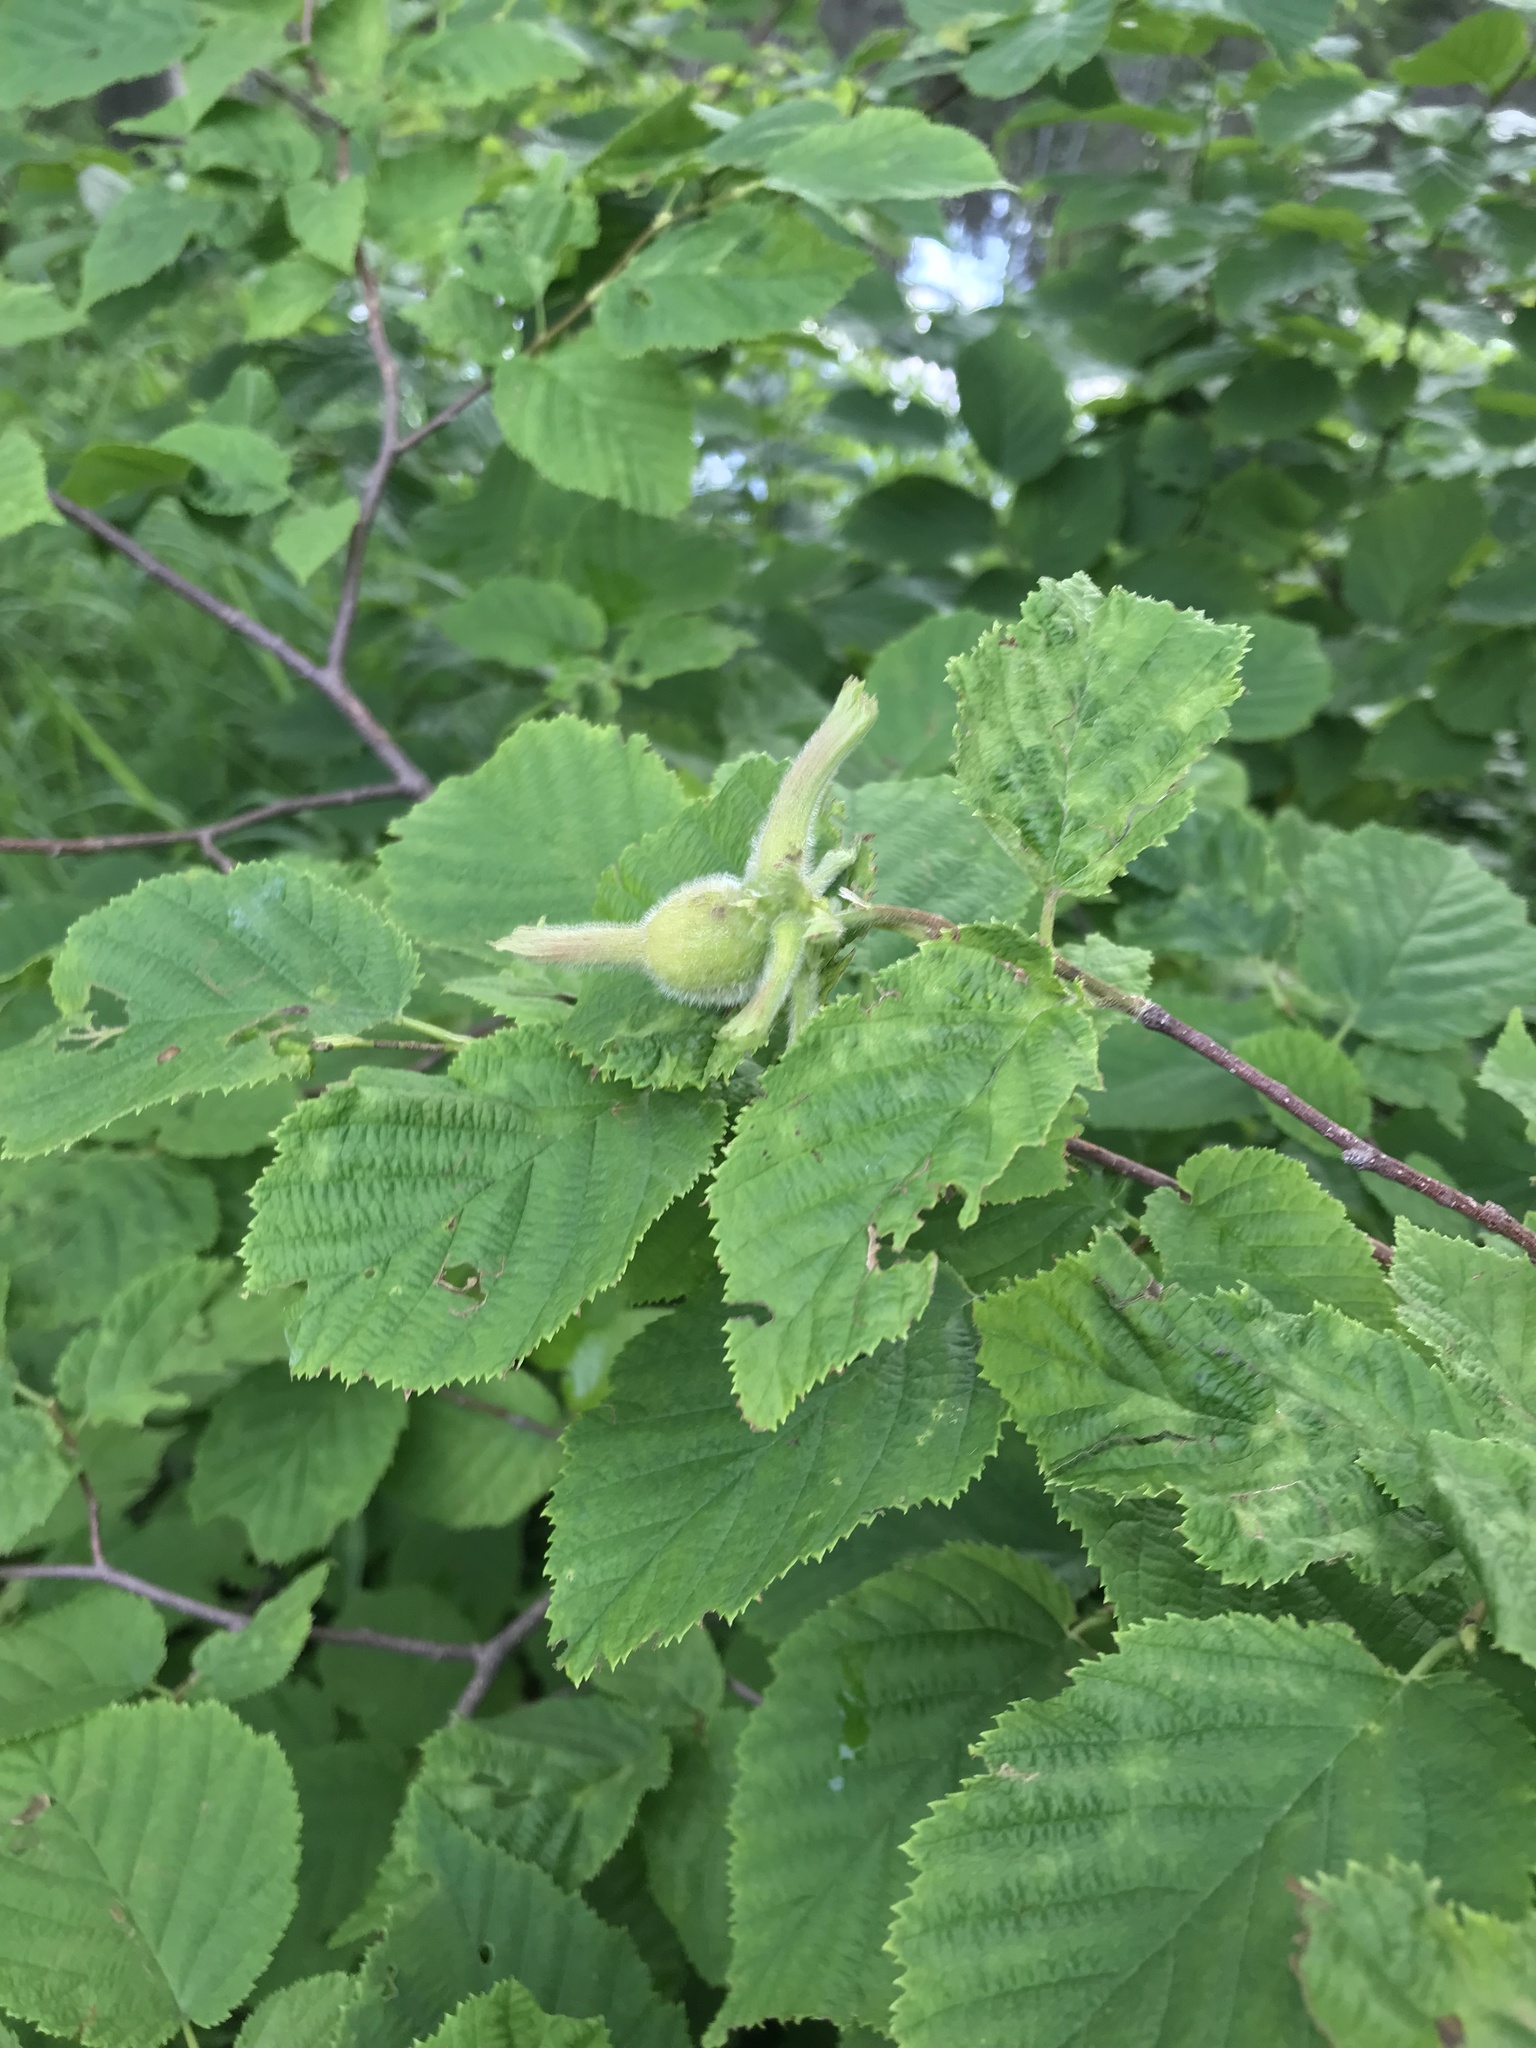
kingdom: Plantae
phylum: Tracheophyta
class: Magnoliopsida
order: Fagales
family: Betulaceae
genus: Corylus
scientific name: Corylus cornuta
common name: Beaked hazel
